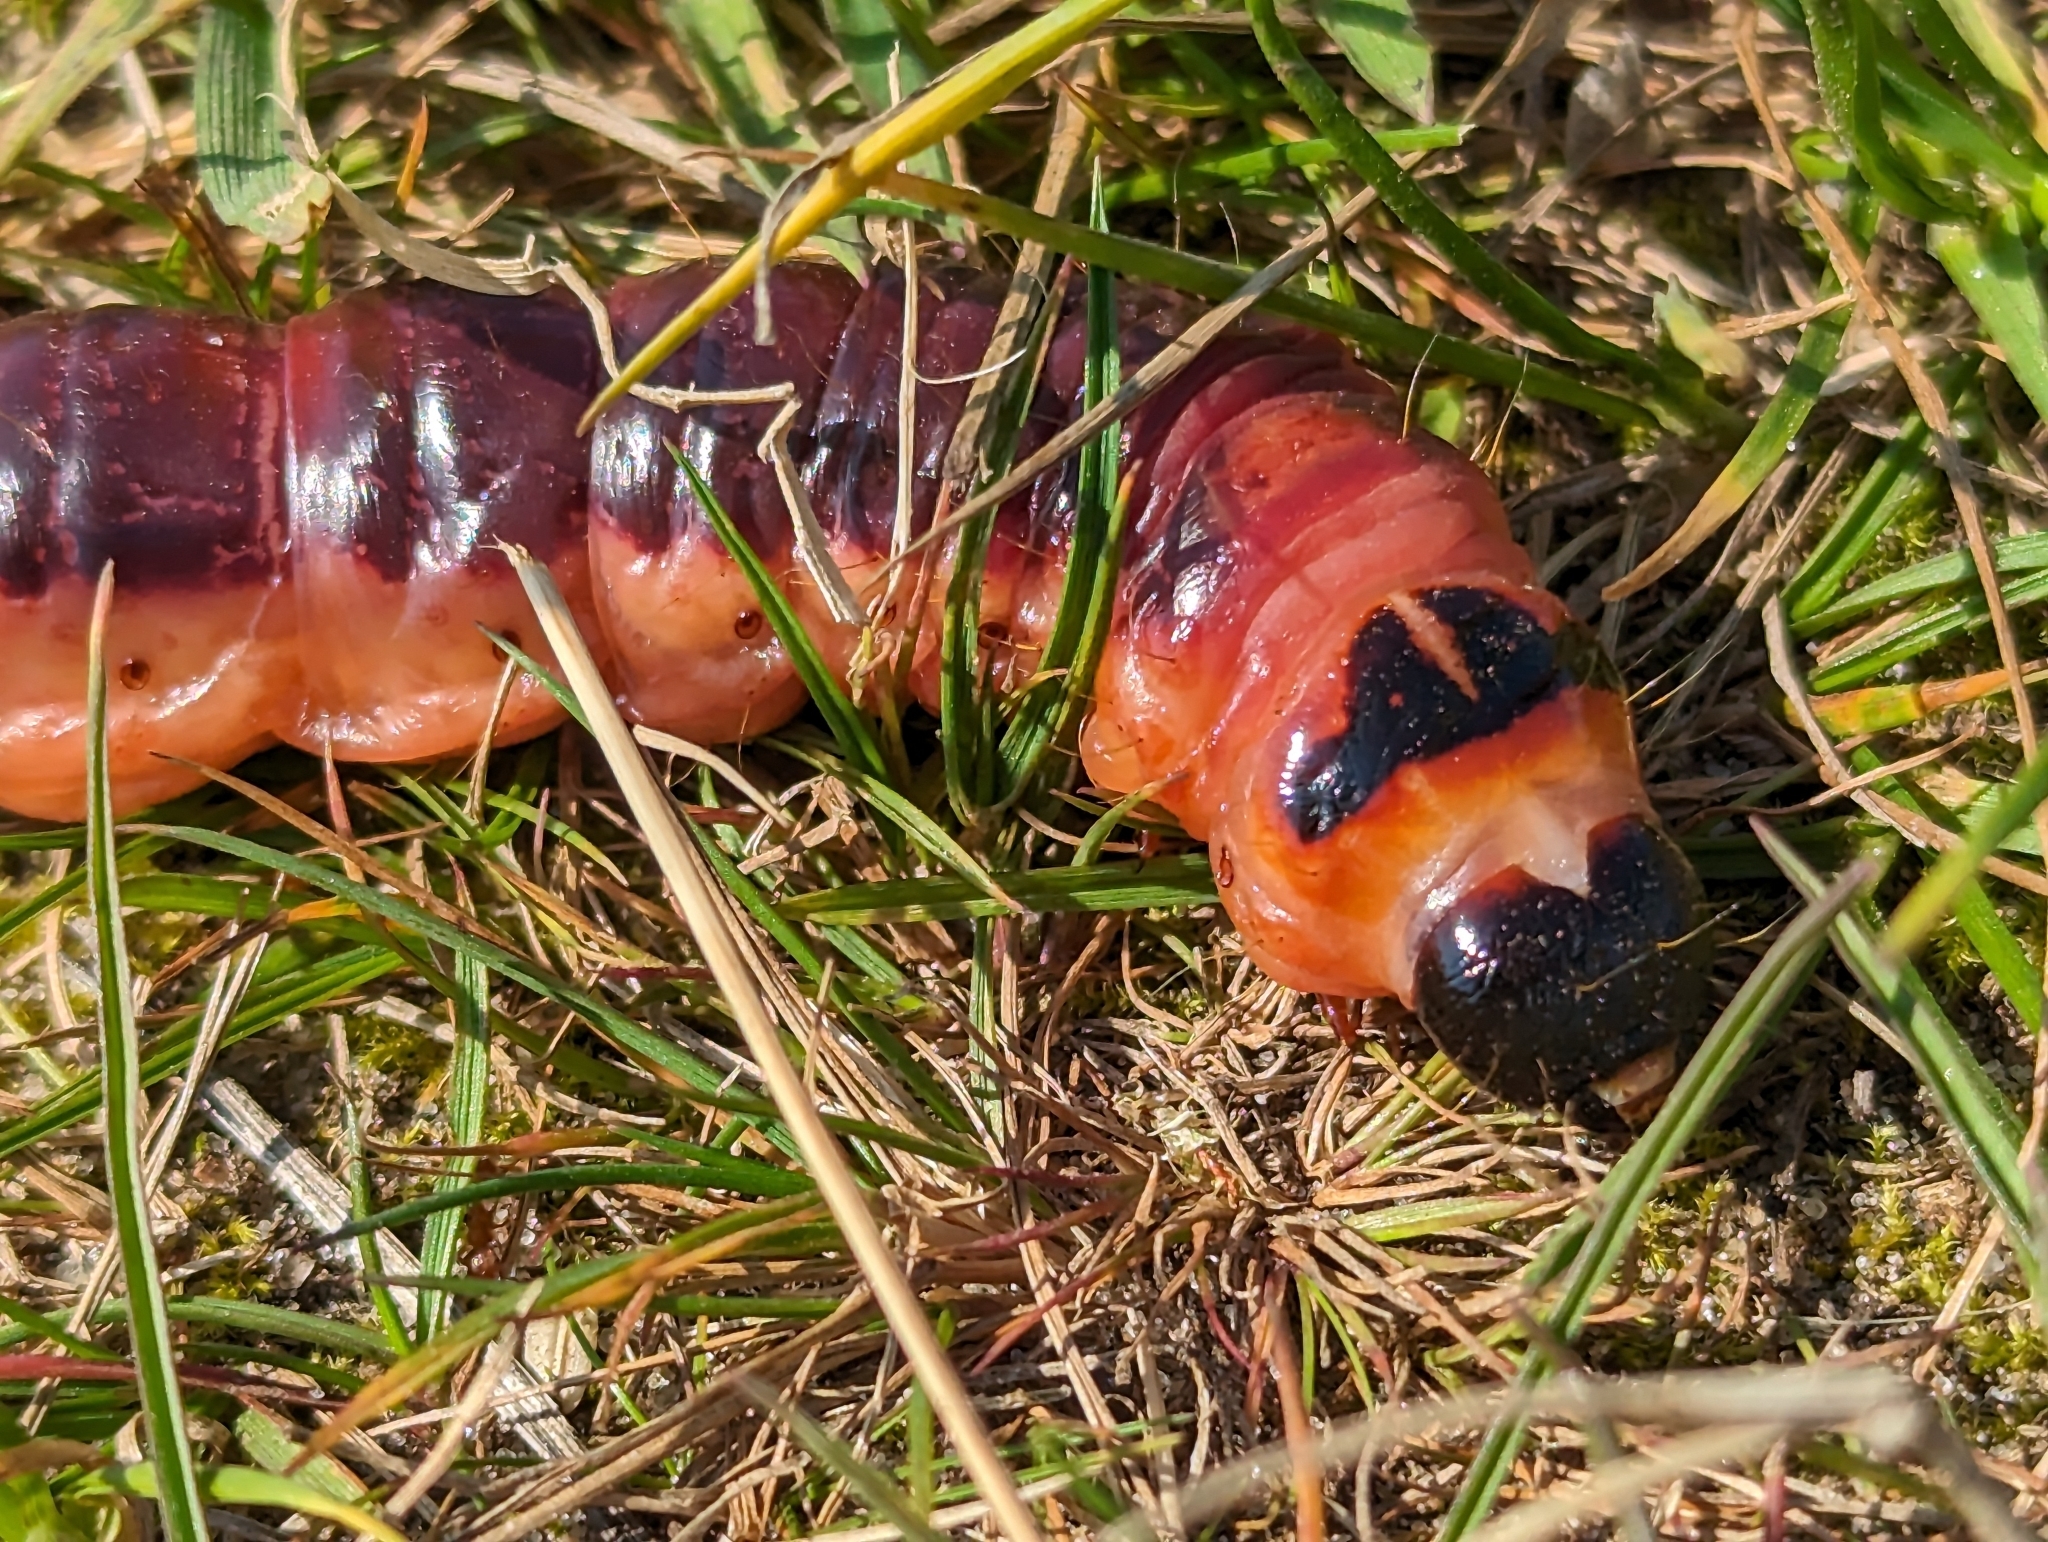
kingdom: Animalia
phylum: Arthropoda
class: Insecta
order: Lepidoptera
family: Cossidae
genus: Cossus
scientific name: Cossus cossus
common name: Goat moth
